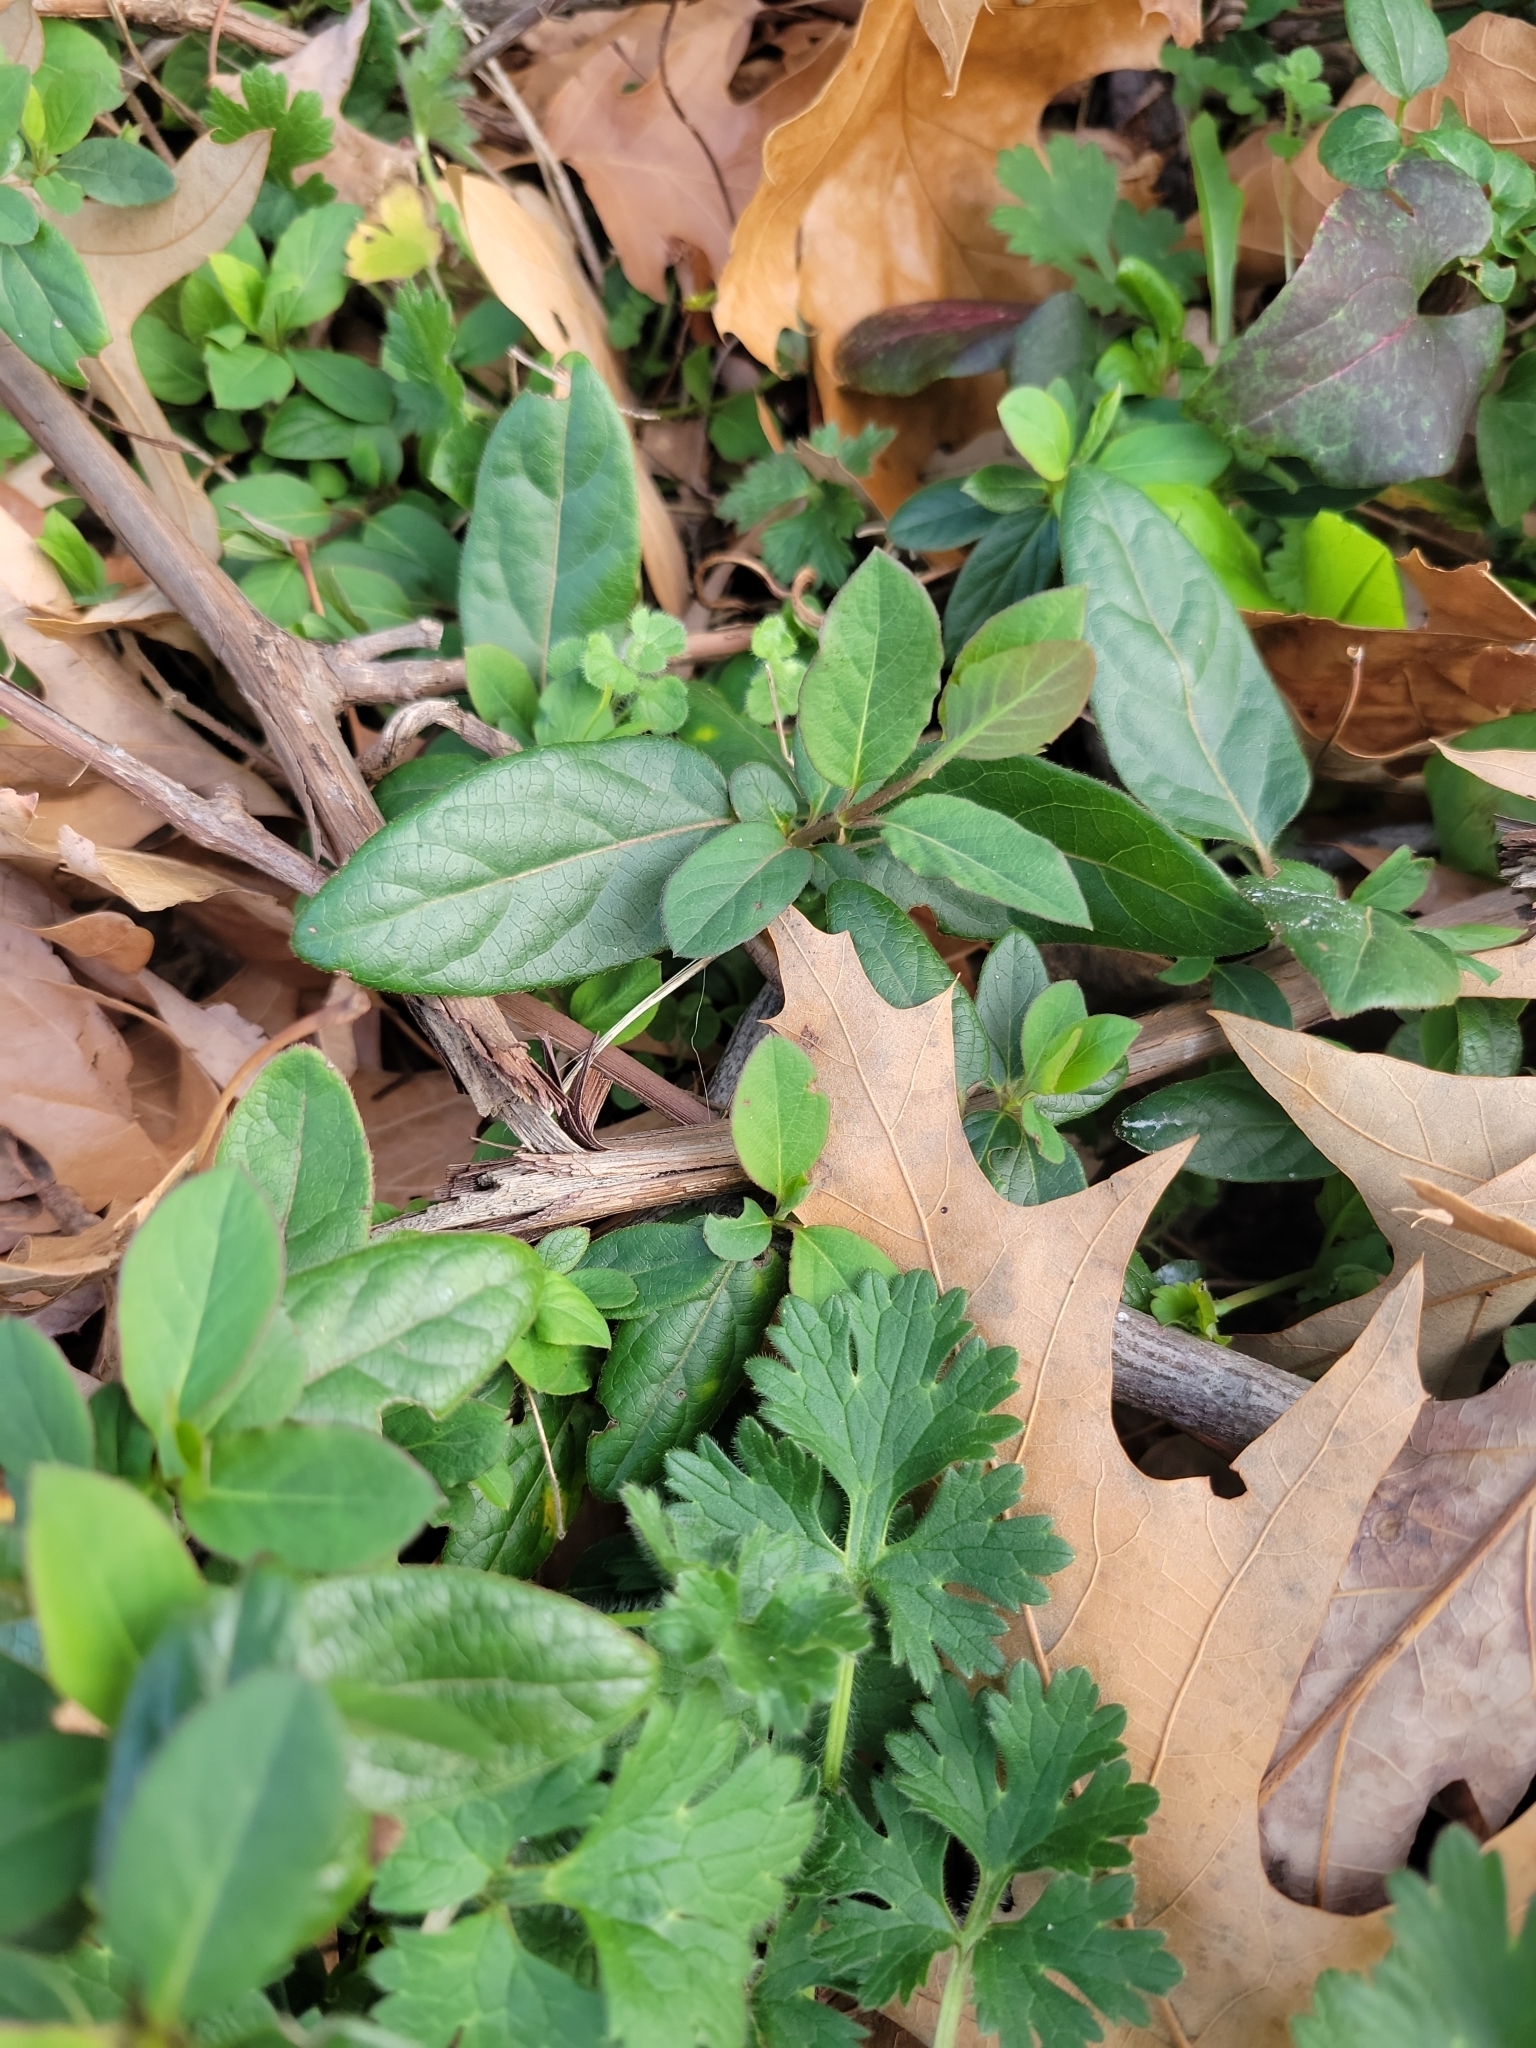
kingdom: Plantae
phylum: Tracheophyta
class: Magnoliopsida
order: Dipsacales
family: Caprifoliaceae
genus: Lonicera
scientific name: Lonicera japonica
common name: Japanese honeysuckle
